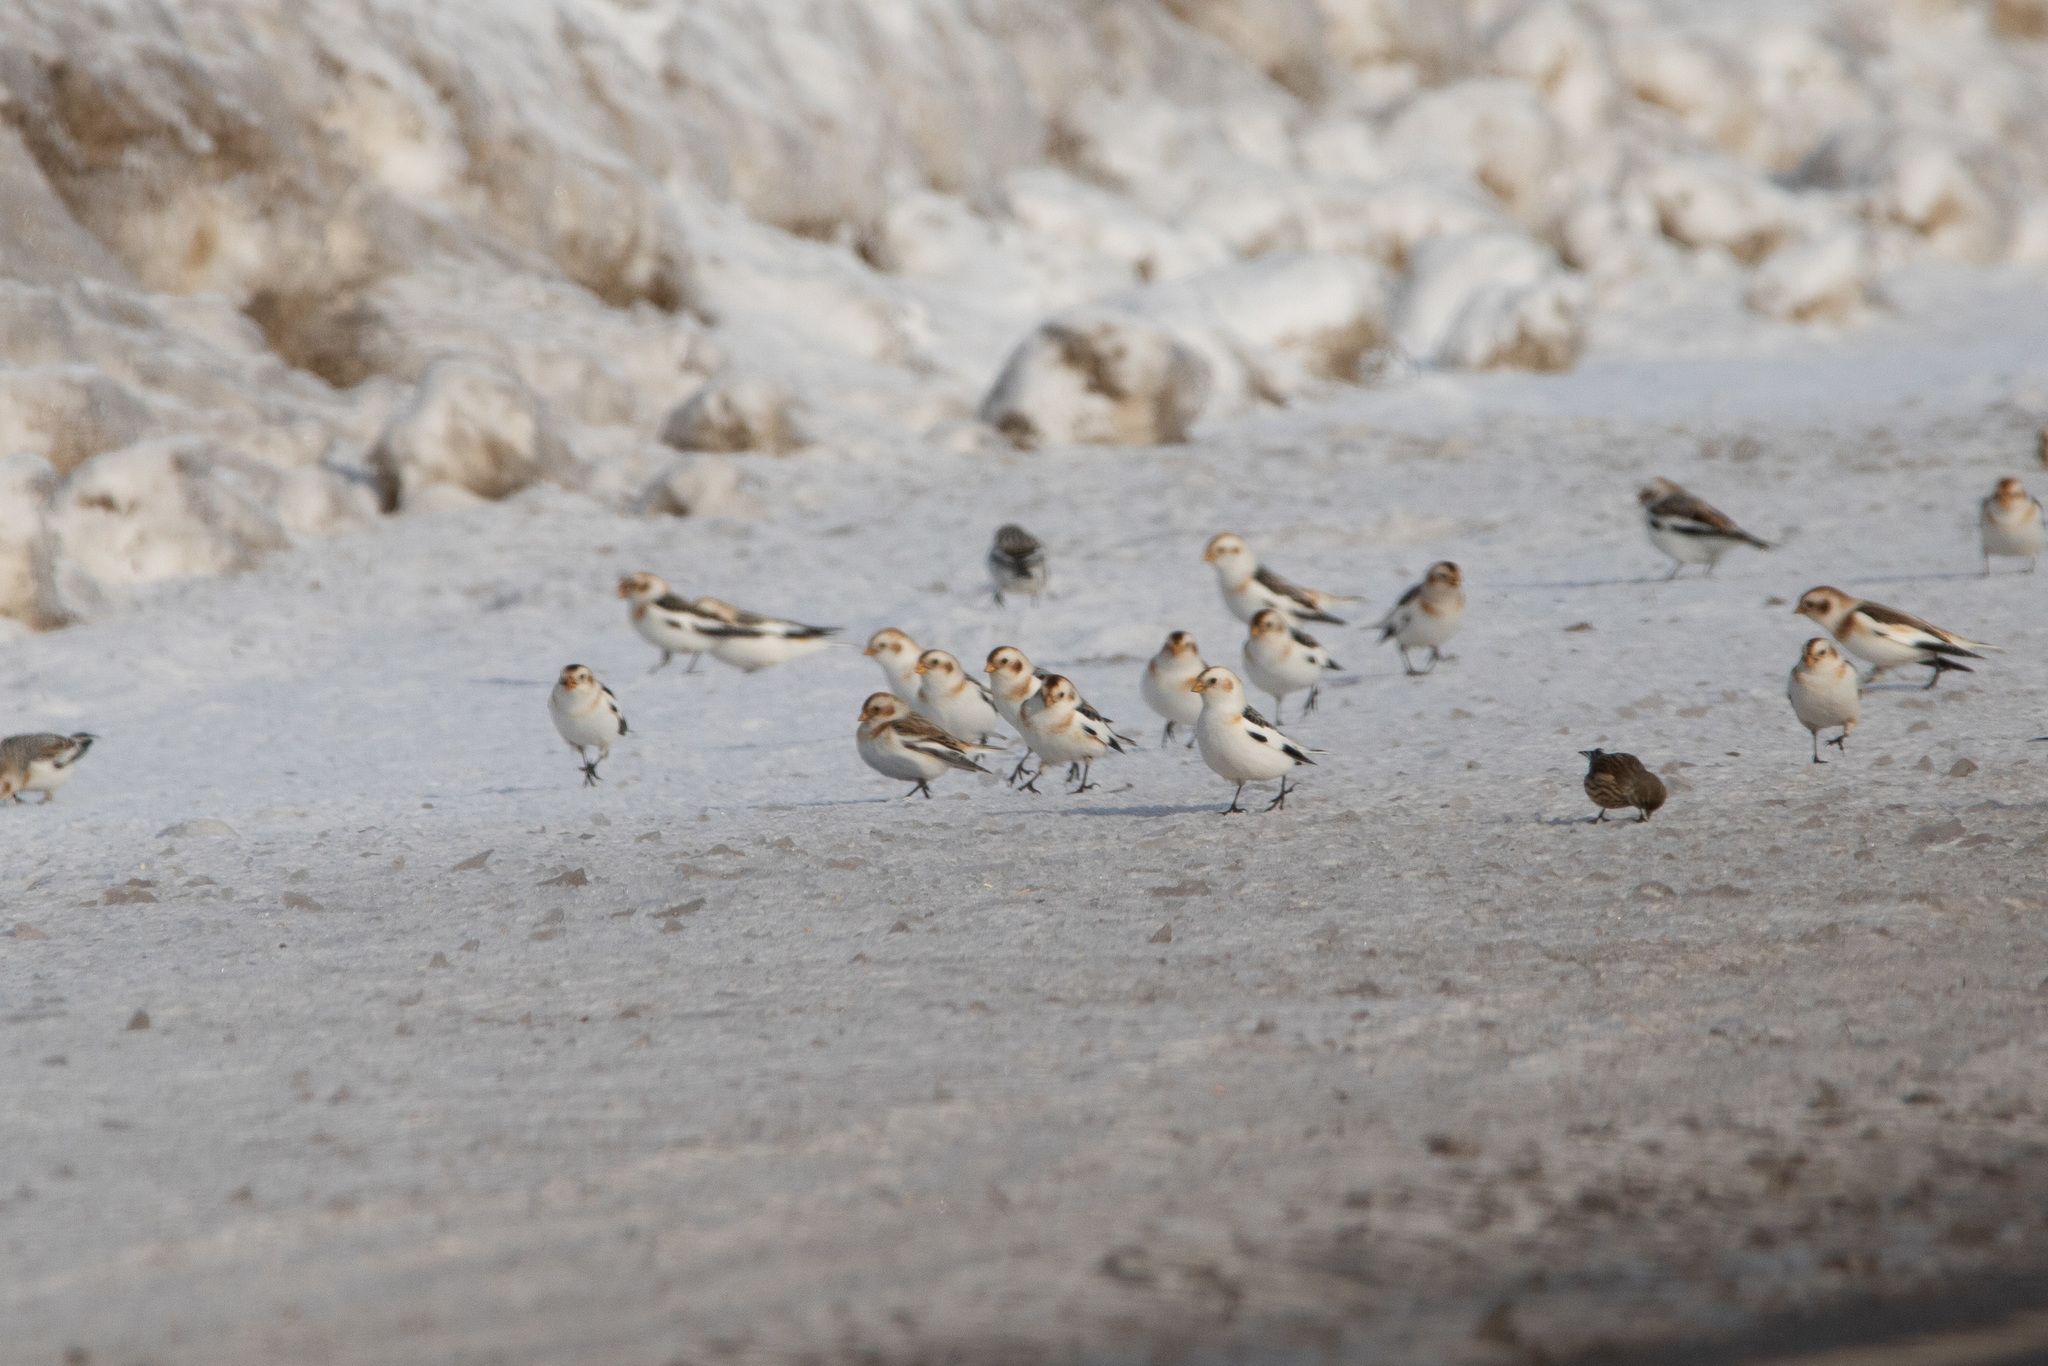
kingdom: Animalia
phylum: Chordata
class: Aves
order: Passeriformes
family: Calcariidae
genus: Plectrophenax
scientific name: Plectrophenax nivalis
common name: Snow bunting
